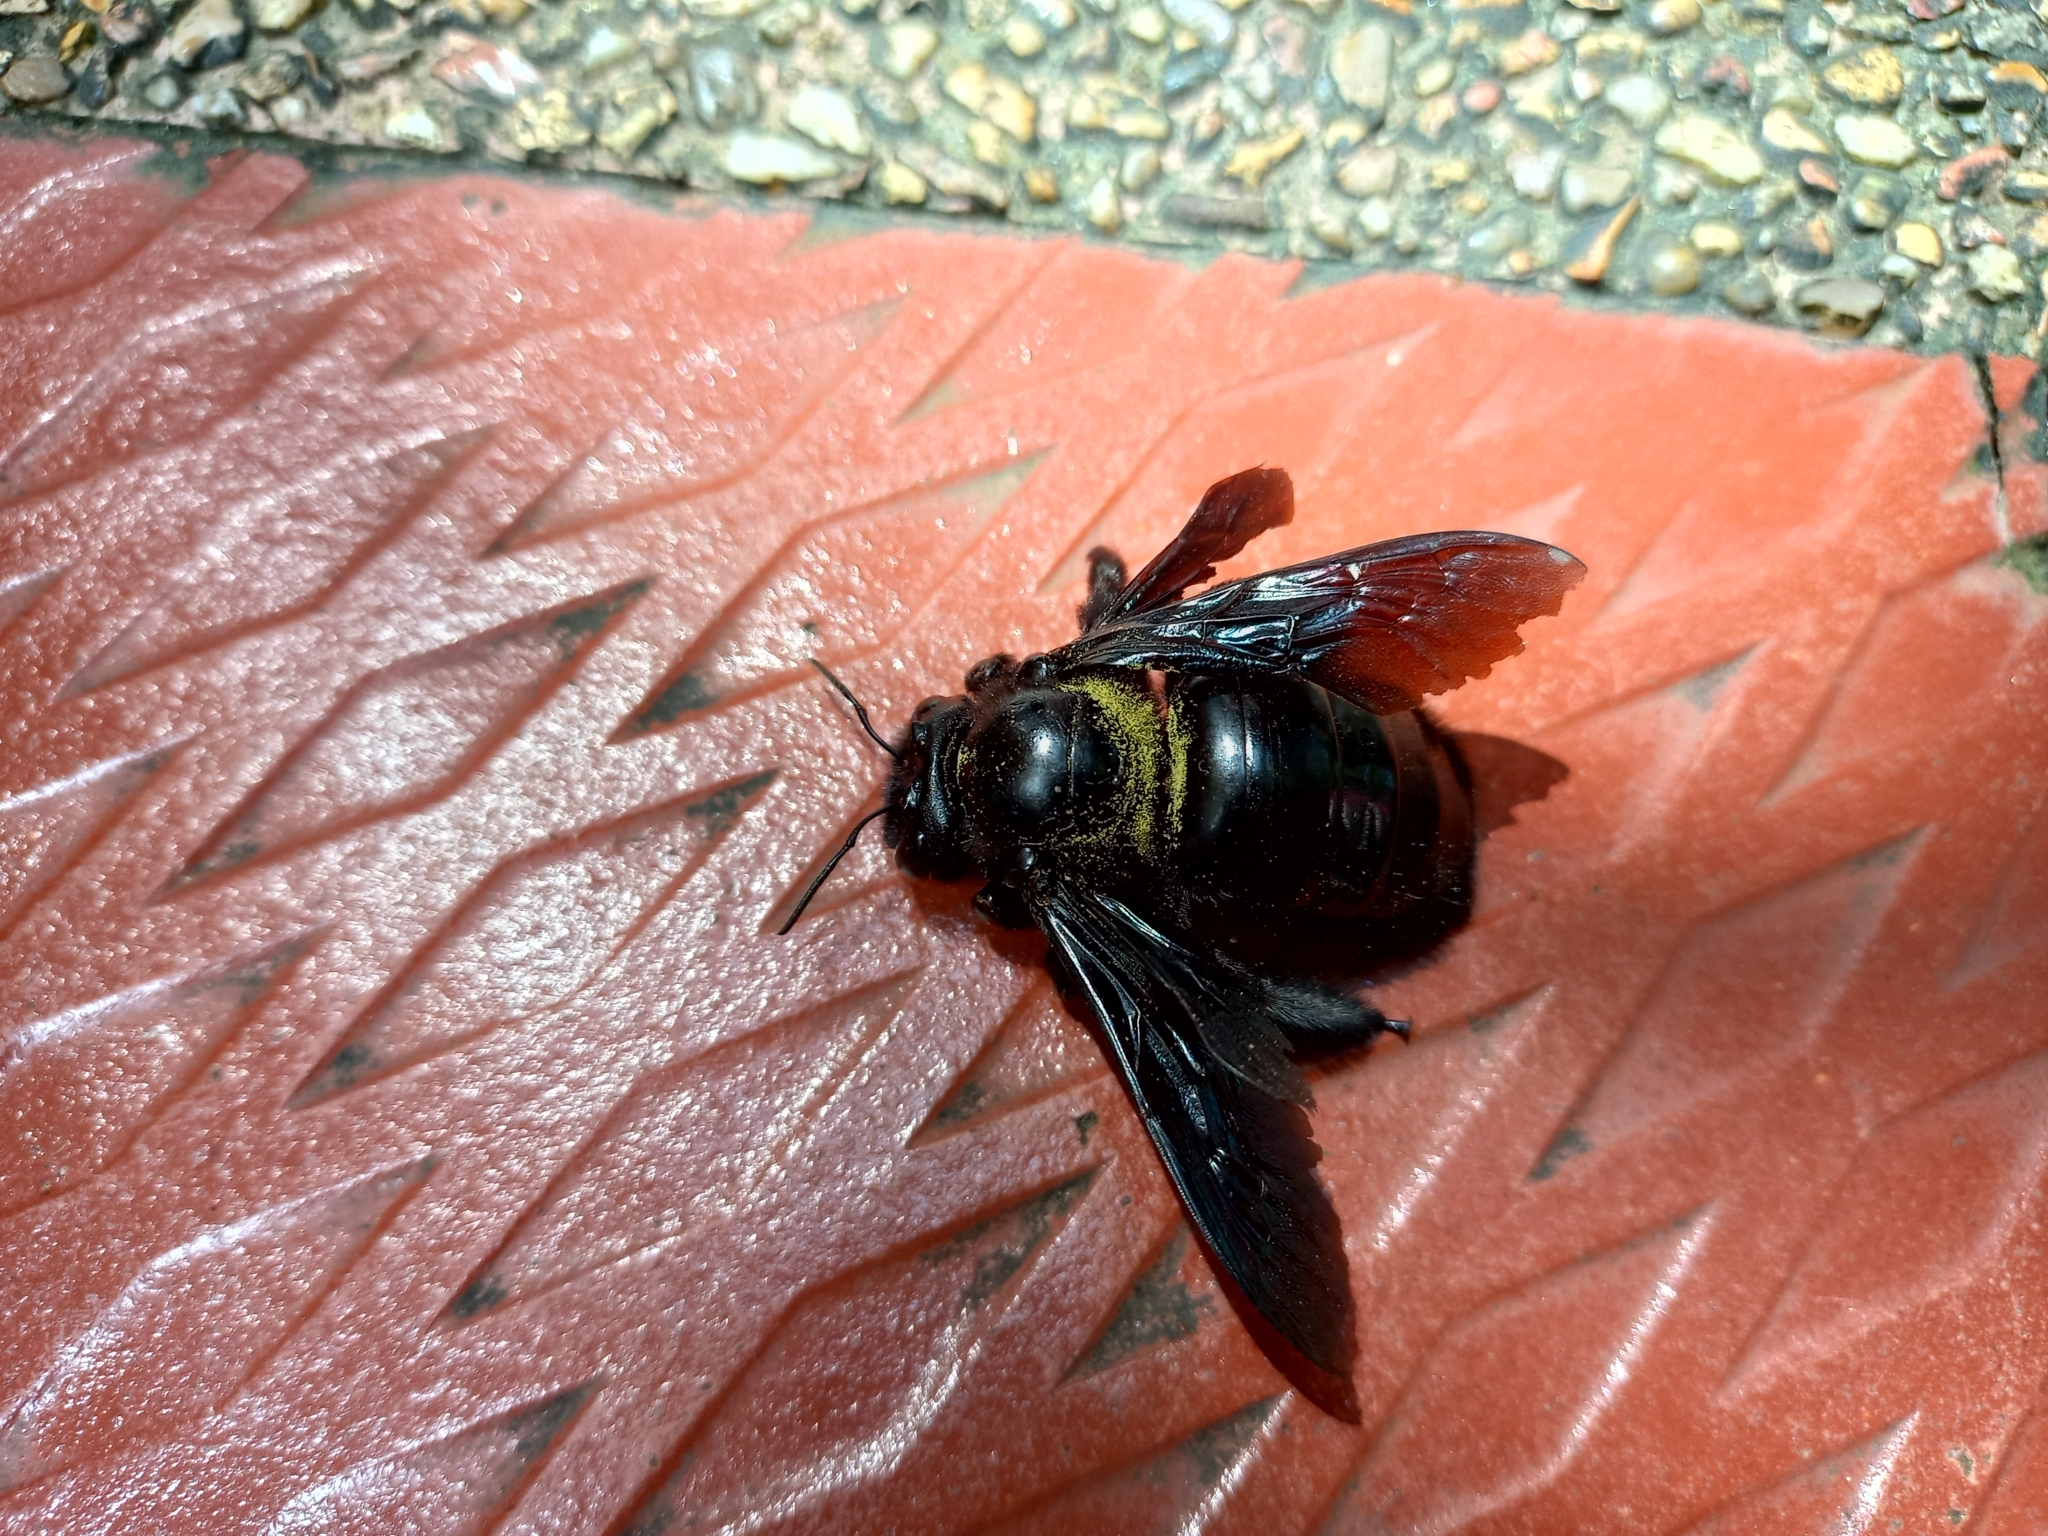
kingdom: Animalia
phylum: Arthropoda
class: Insecta
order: Hymenoptera
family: Apidae
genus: Xylocopa
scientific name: Xylocopa fimbriata
